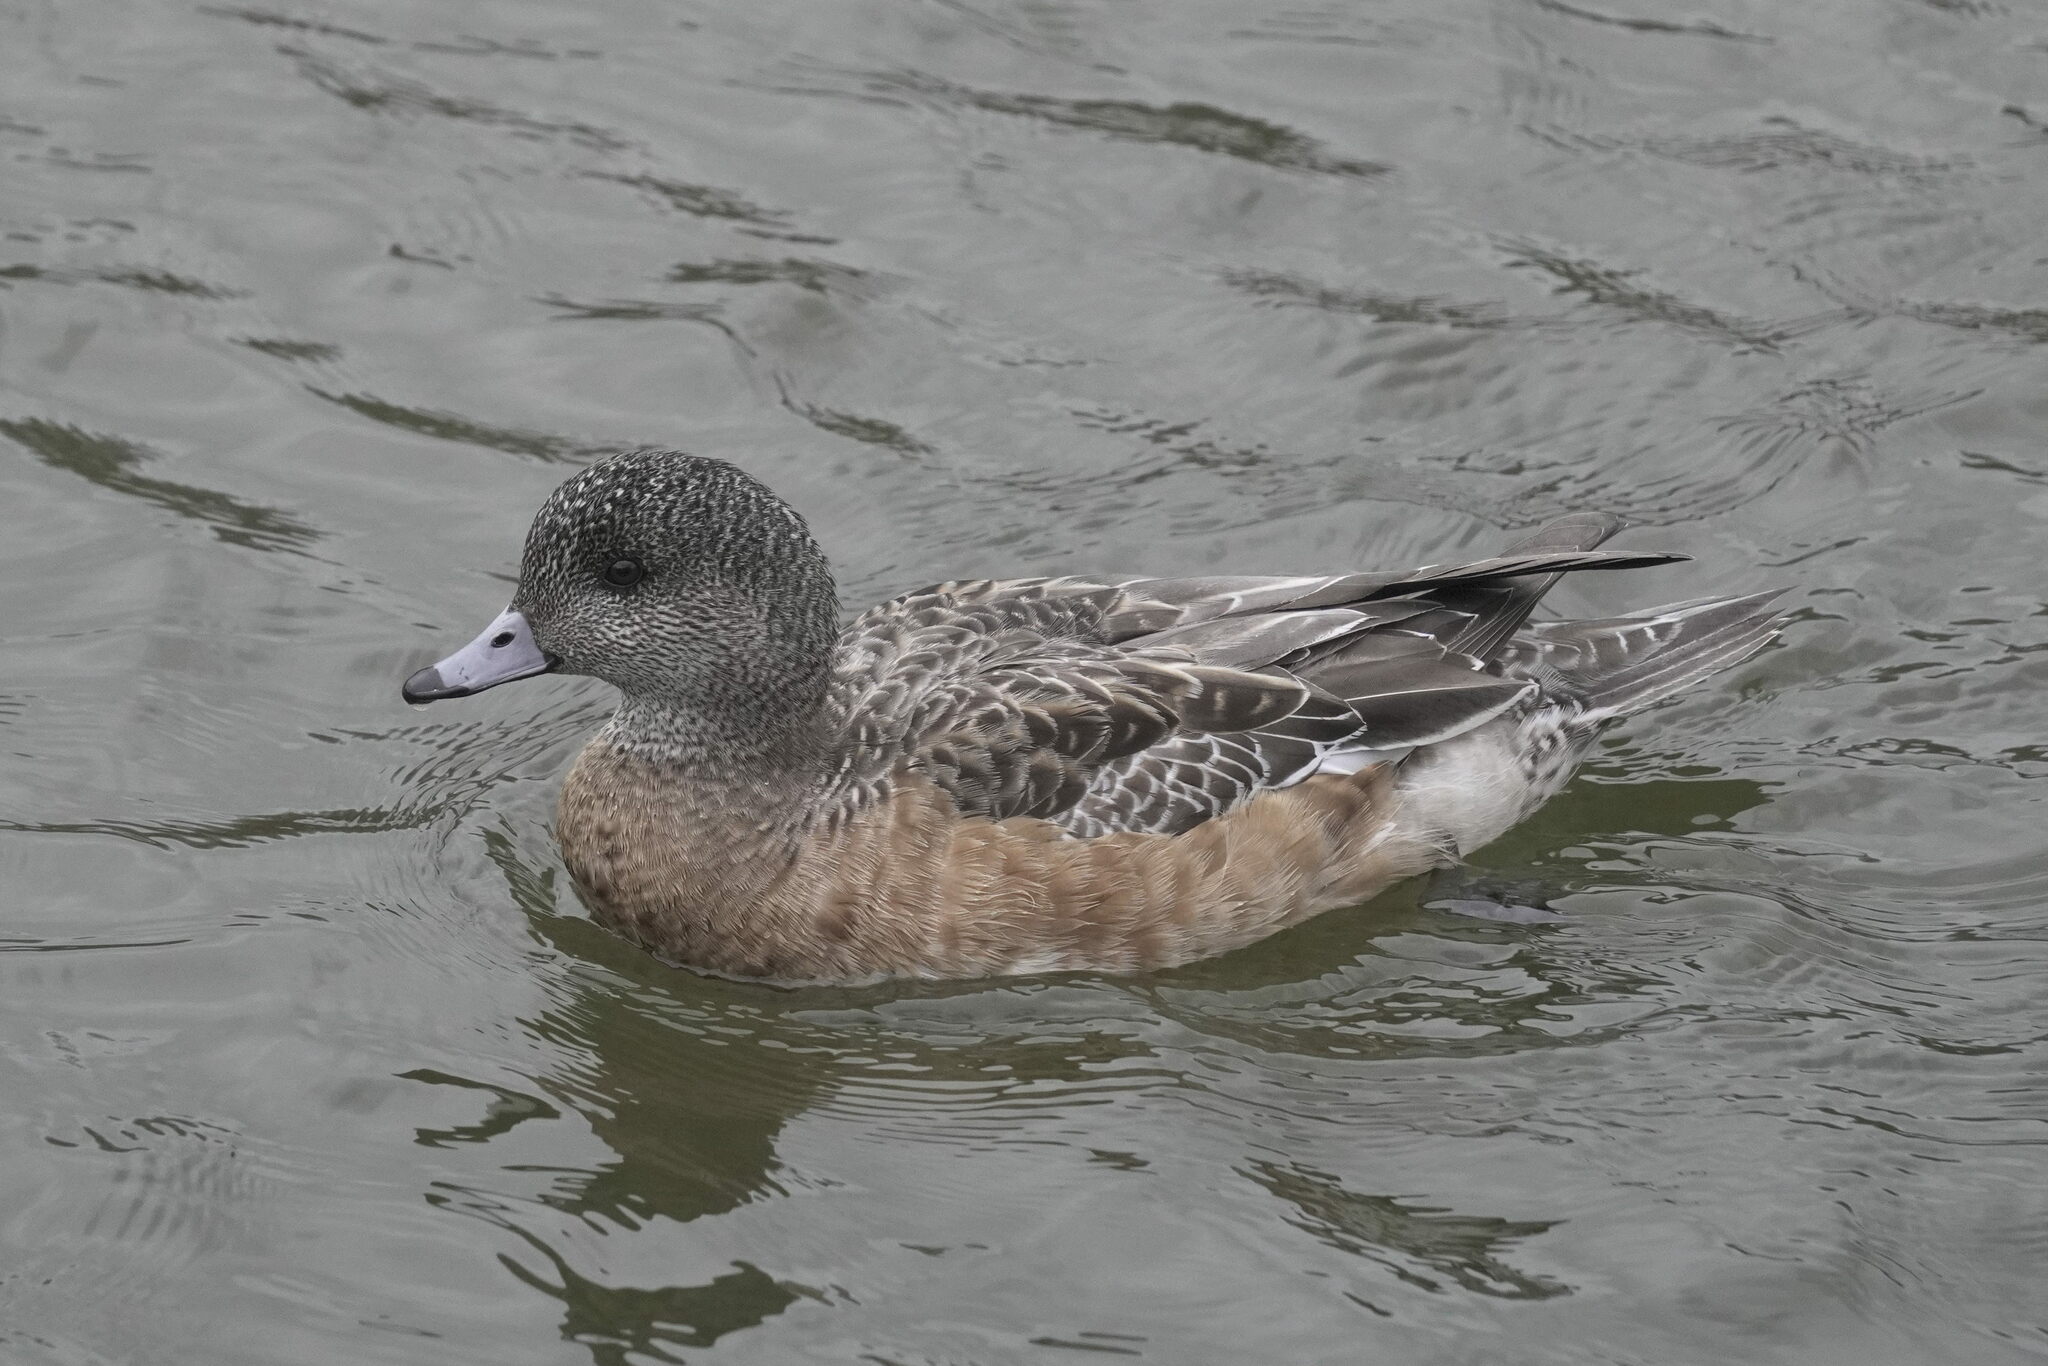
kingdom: Animalia
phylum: Chordata
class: Aves
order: Anseriformes
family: Anatidae
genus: Mareca
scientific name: Mareca americana
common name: American wigeon
